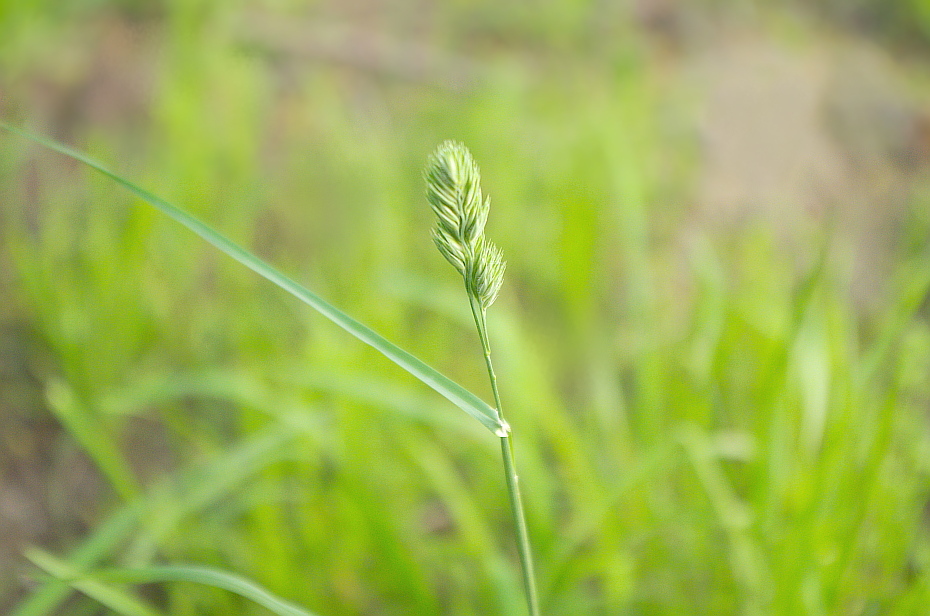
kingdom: Plantae
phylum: Tracheophyta
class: Liliopsida
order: Poales
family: Poaceae
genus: Dactylis
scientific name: Dactylis glomerata
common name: Orchardgrass
